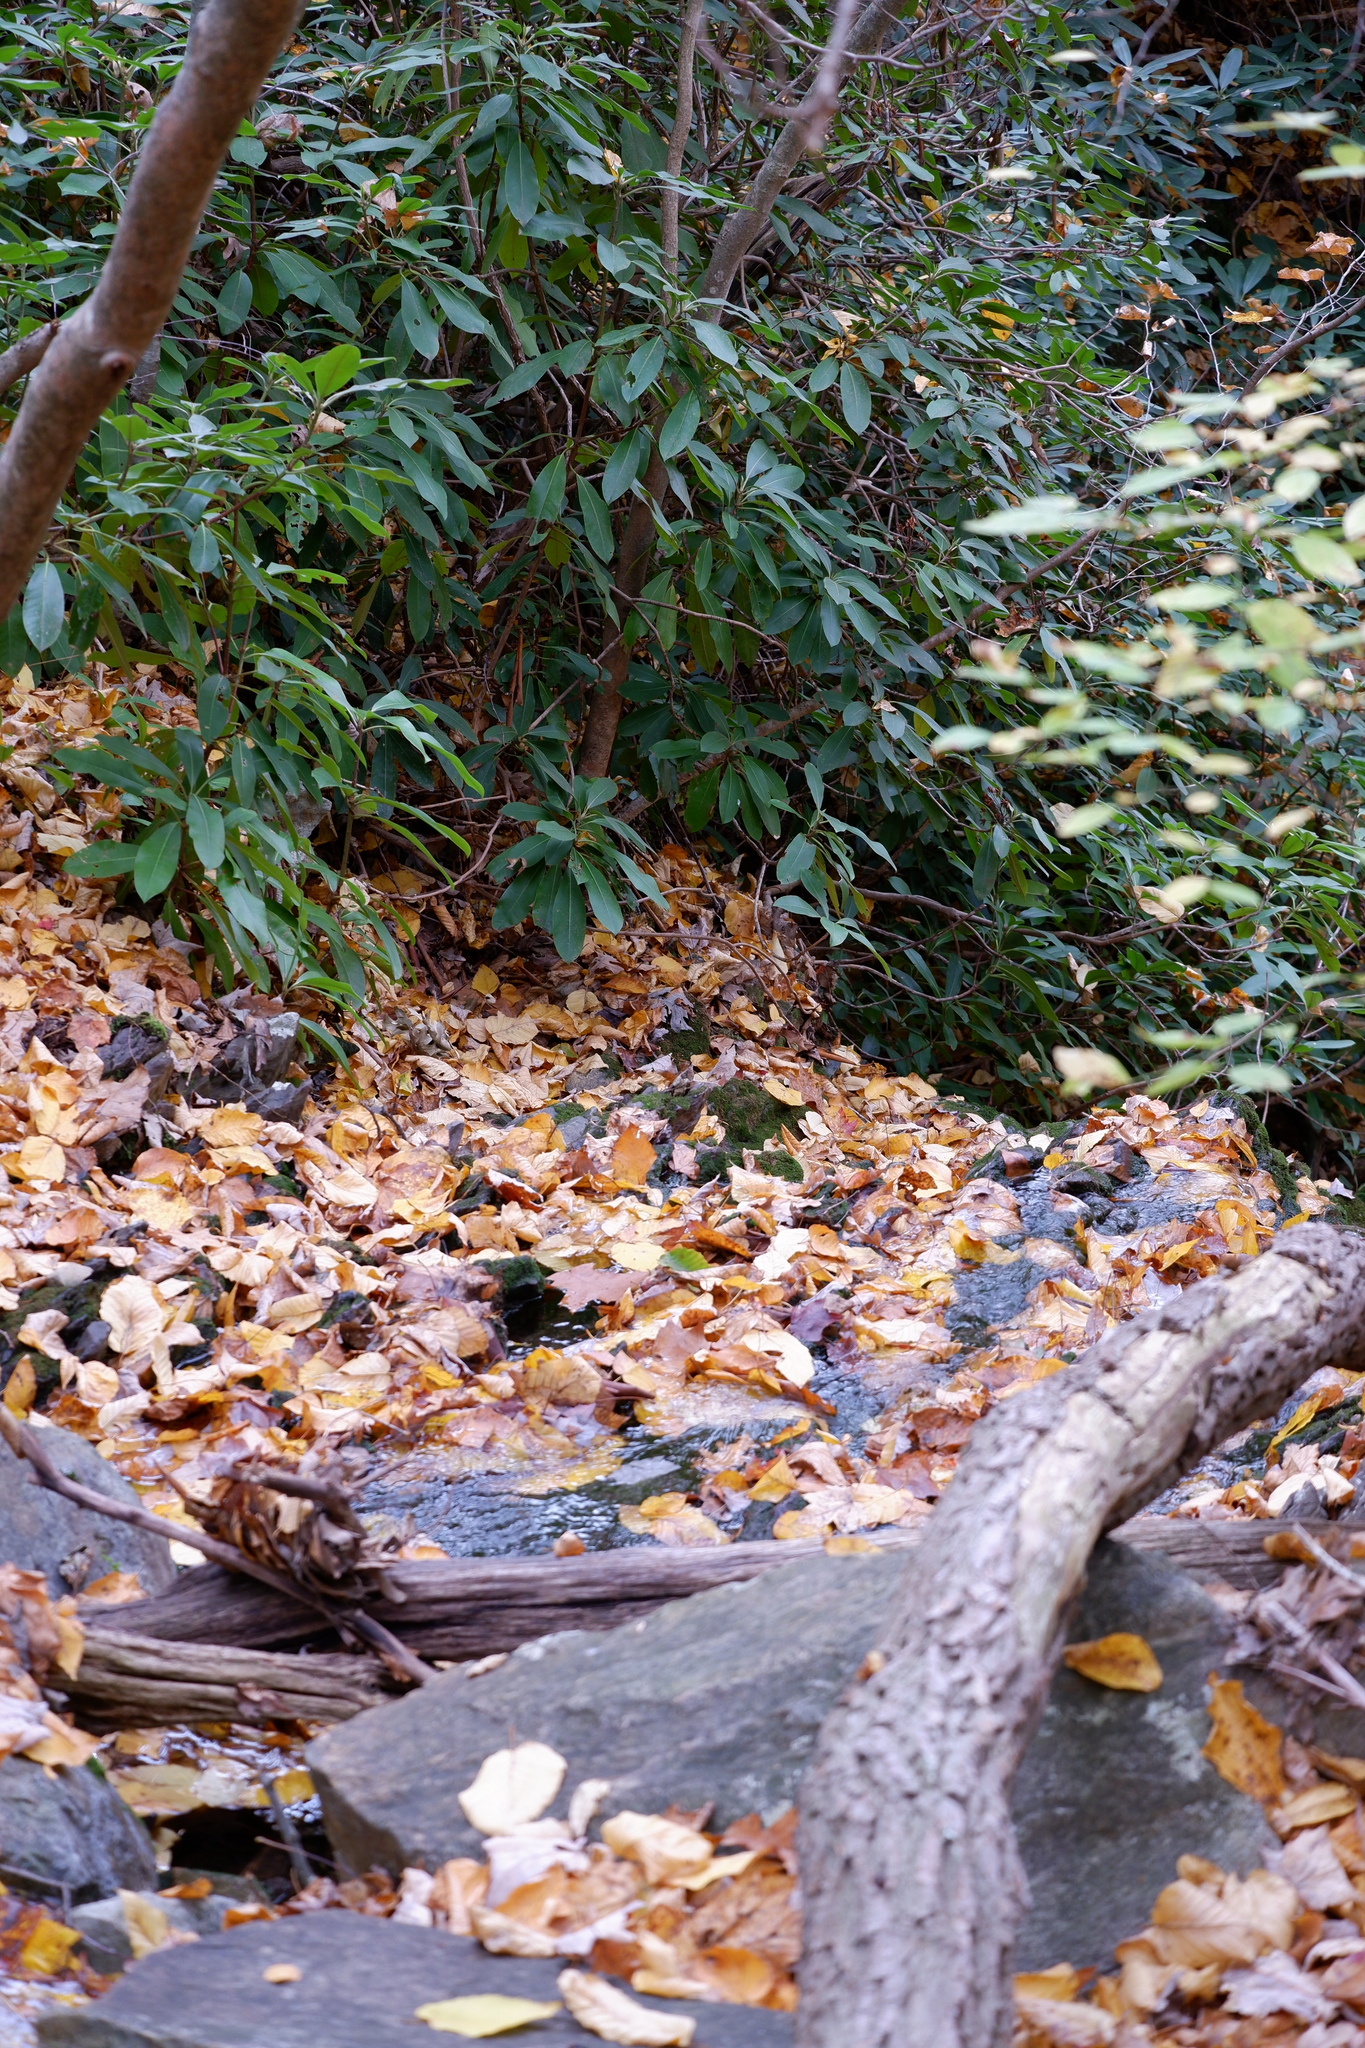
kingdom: Plantae
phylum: Tracheophyta
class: Magnoliopsida
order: Ericales
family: Ericaceae
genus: Rhododendron
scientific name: Rhododendron maximum
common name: Great rhododendron
